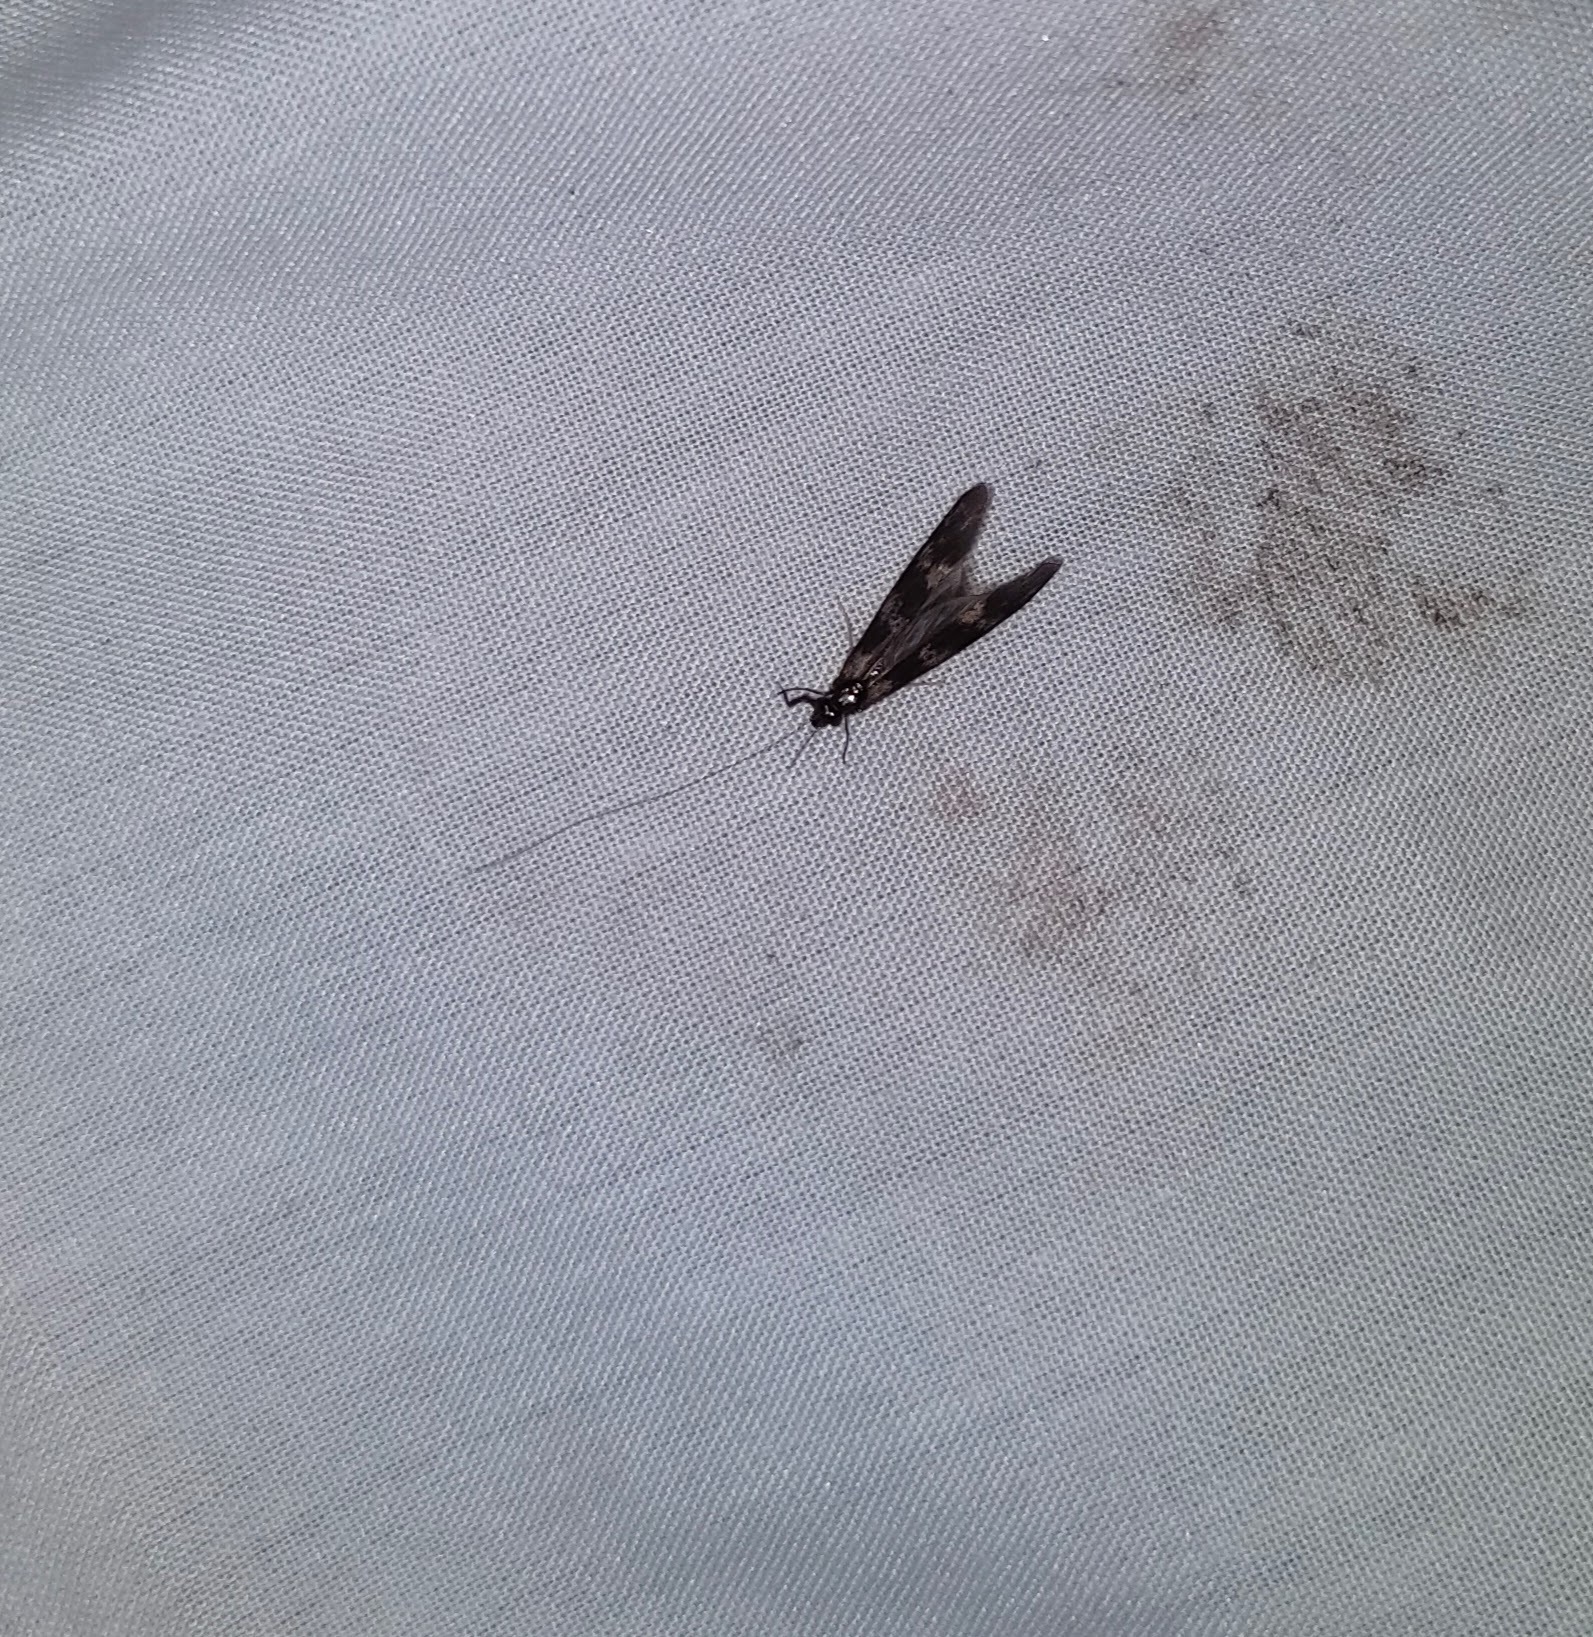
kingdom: Animalia
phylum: Arthropoda
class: Insecta
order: Trichoptera
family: Leptoceridae
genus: Mystacides
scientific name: Mystacides longicornis
